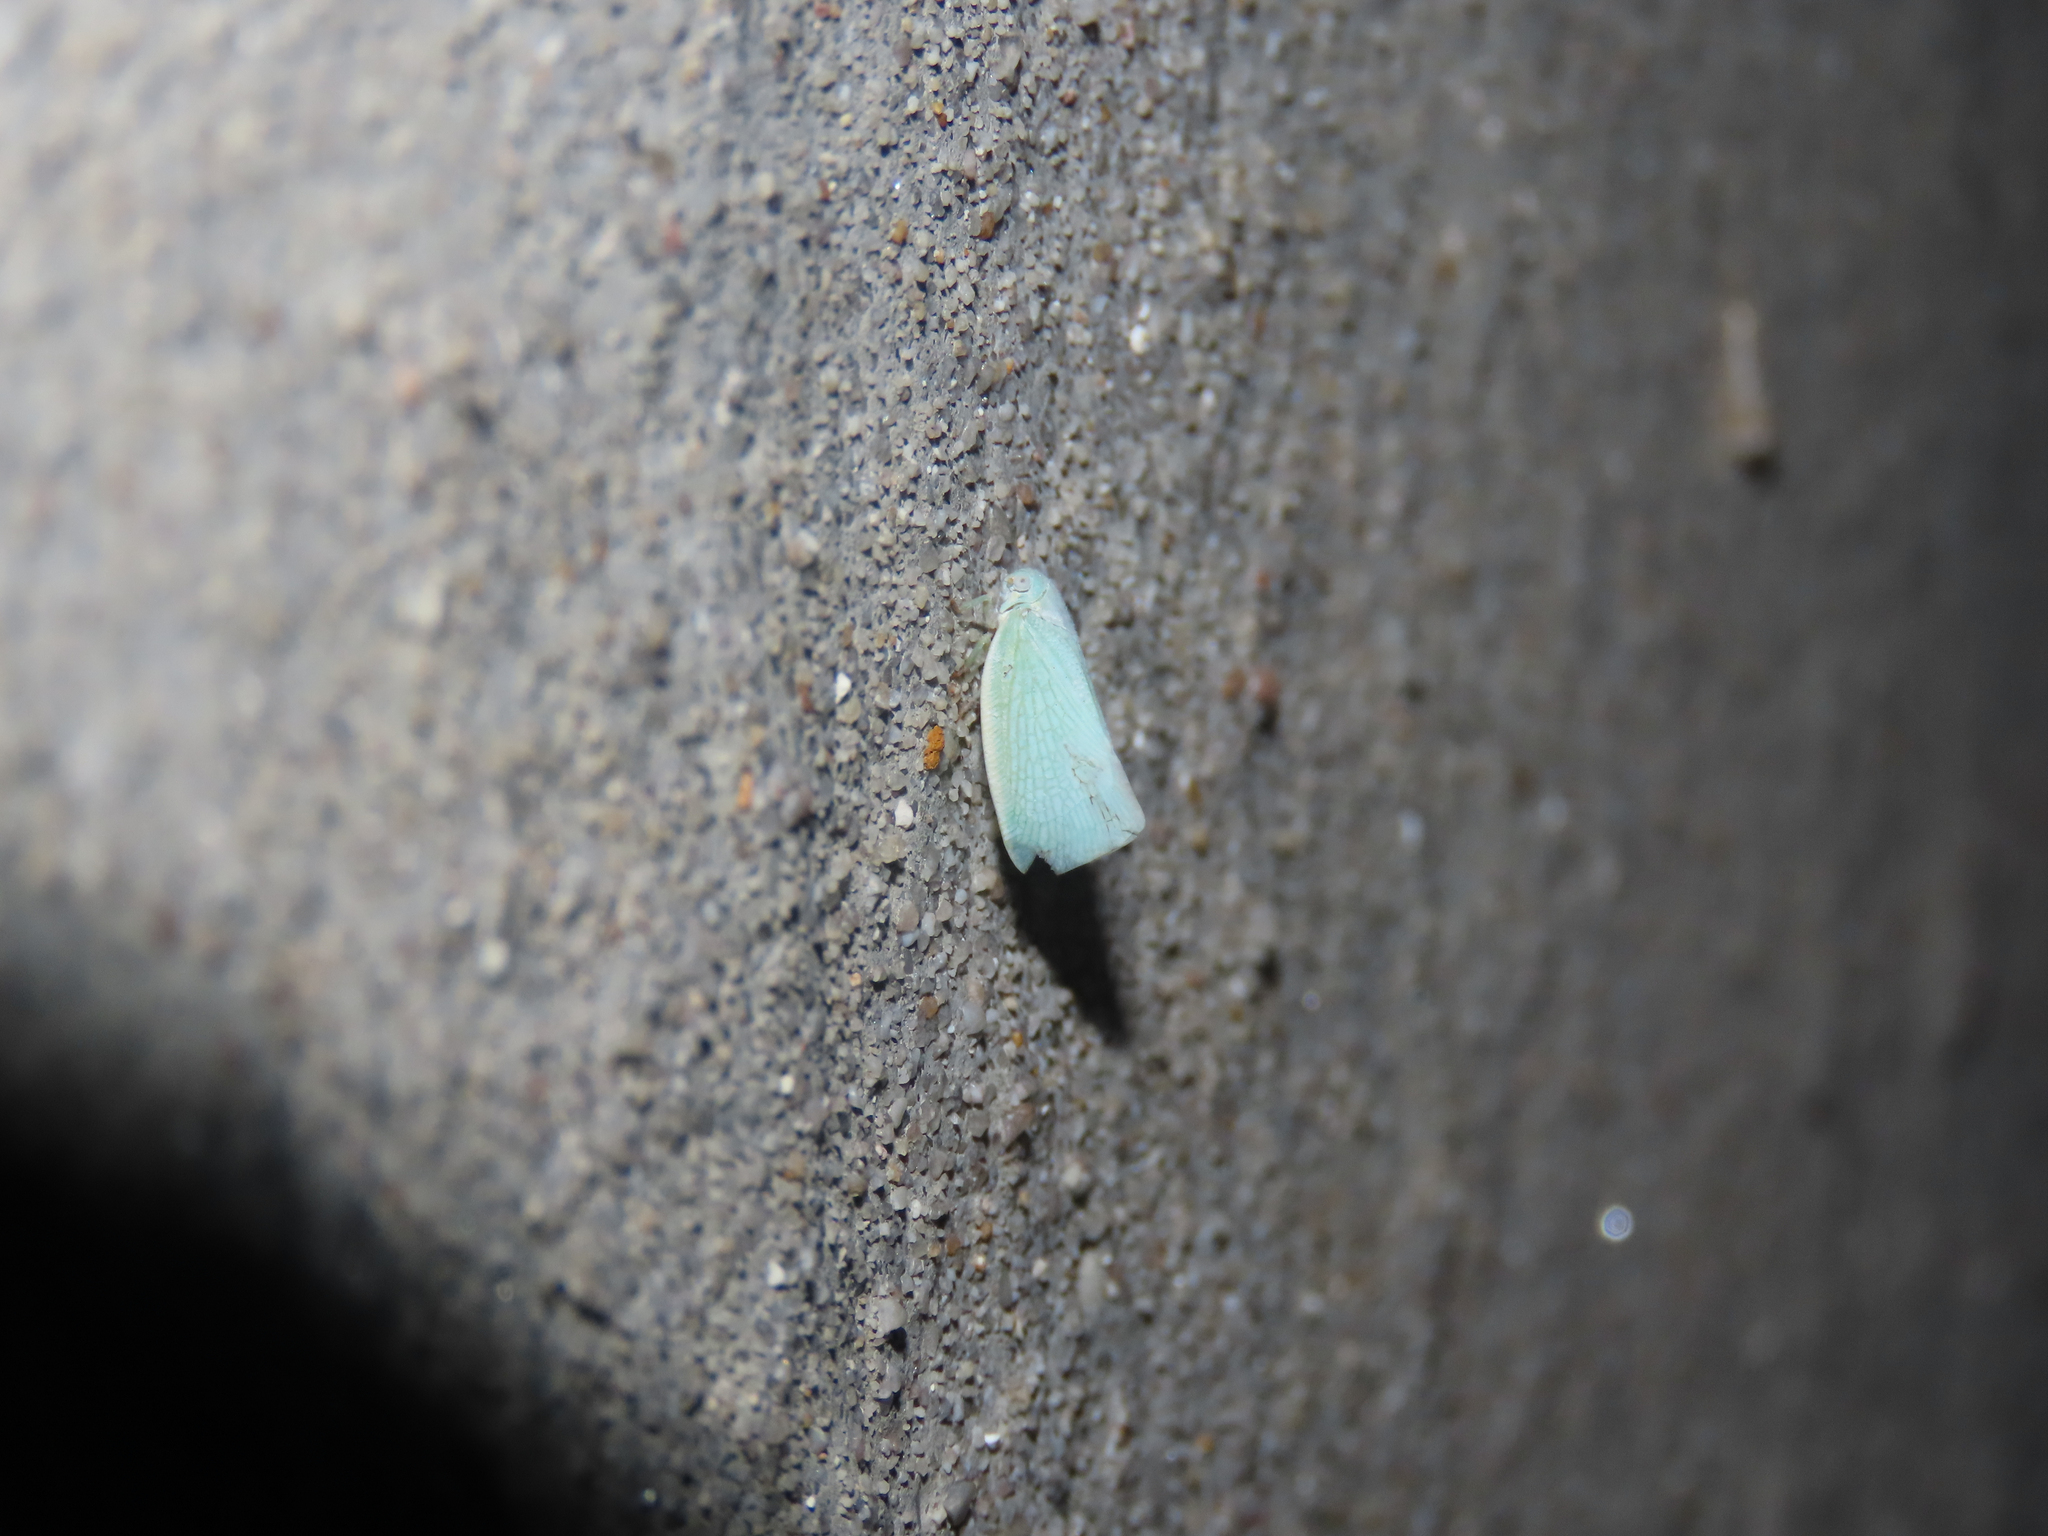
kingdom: Animalia
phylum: Arthropoda
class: Insecta
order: Hemiptera
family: Flatidae
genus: Flatormenis
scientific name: Flatormenis proxima
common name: Northern flatid planthopper
